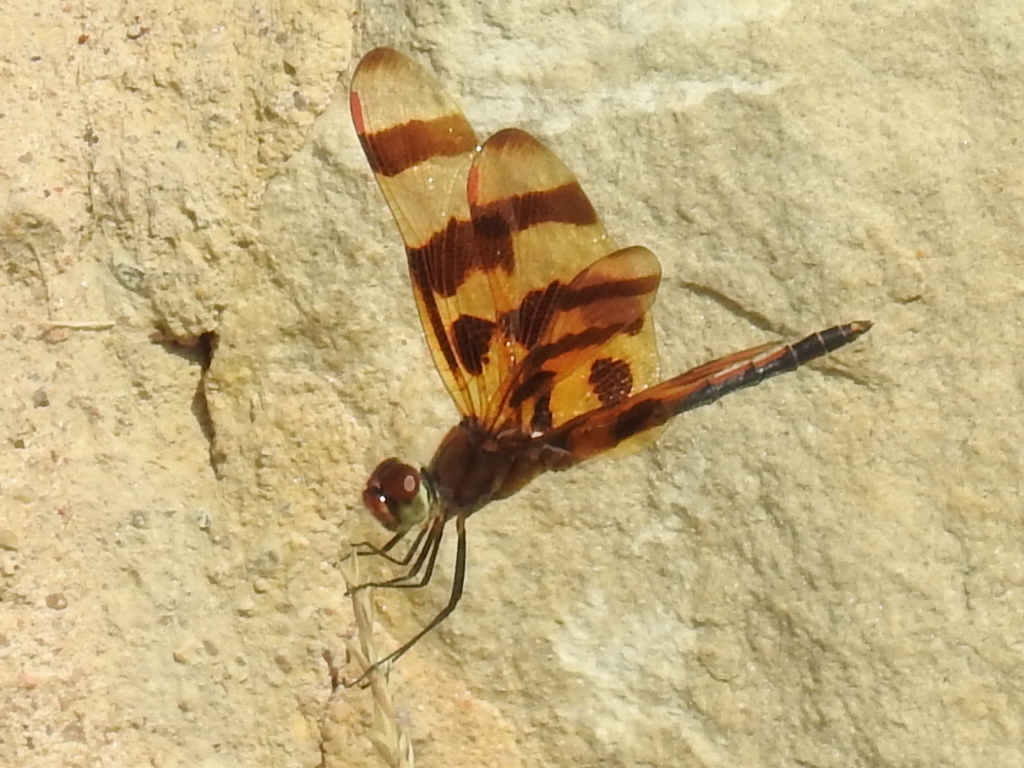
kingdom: Animalia
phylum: Arthropoda
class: Insecta
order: Odonata
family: Libellulidae
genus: Celithemis
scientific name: Celithemis eponina
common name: Halloween pennant
